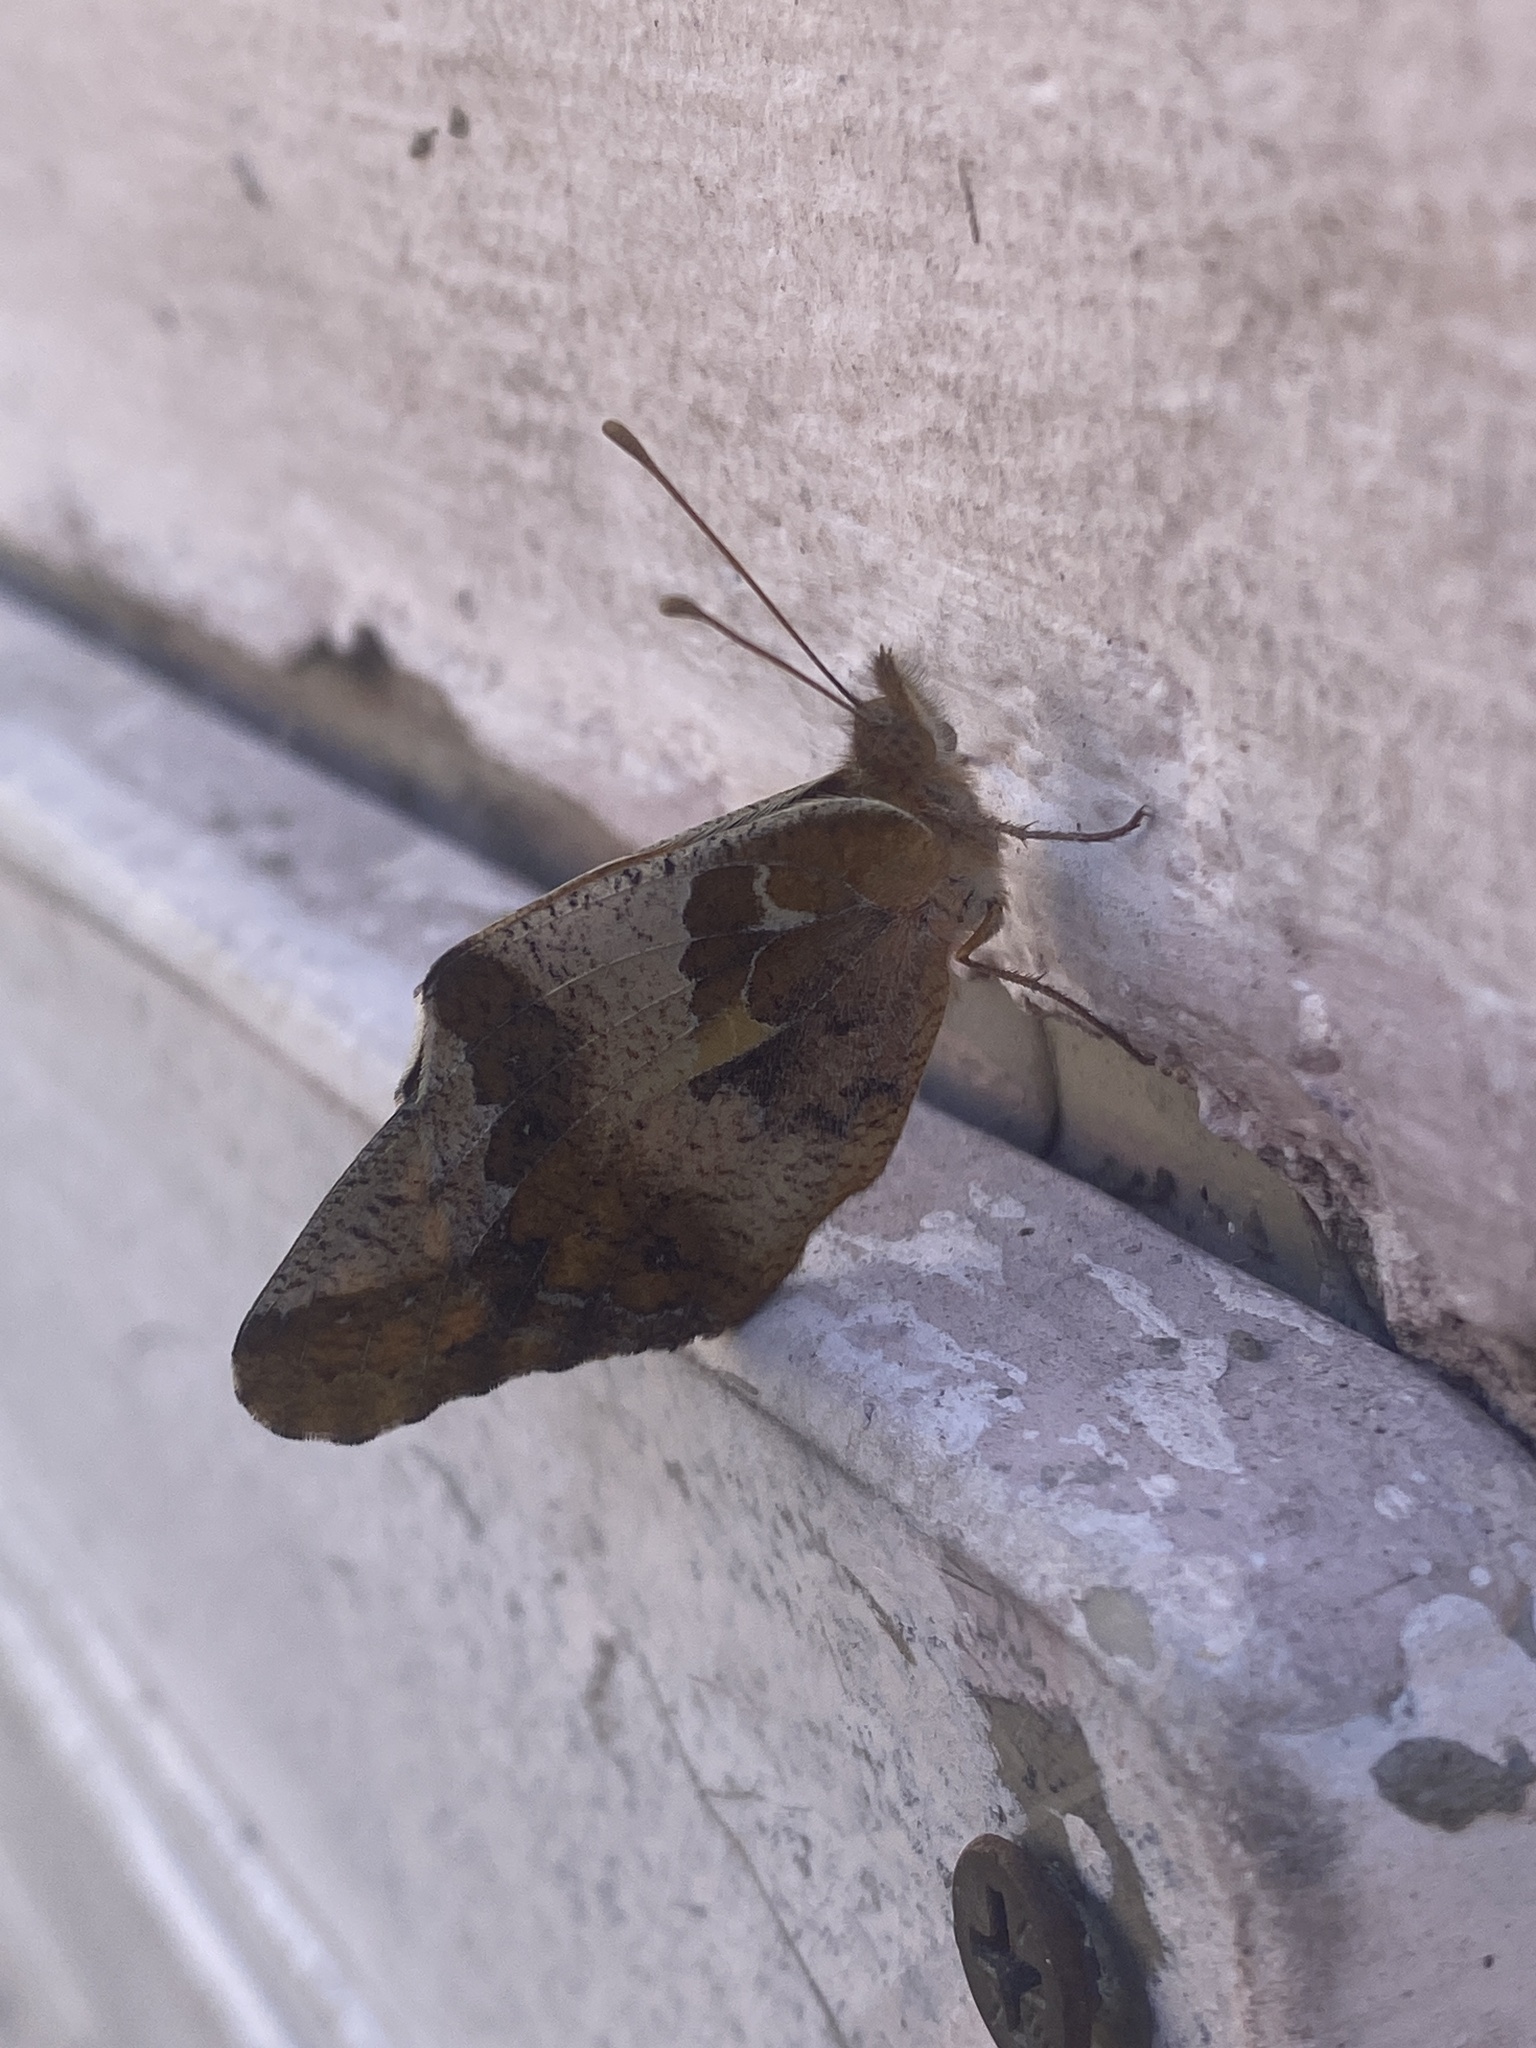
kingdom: Animalia
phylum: Arthropoda
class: Insecta
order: Lepidoptera
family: Nymphalidae
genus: Euptoieta
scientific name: Euptoieta hortensia
